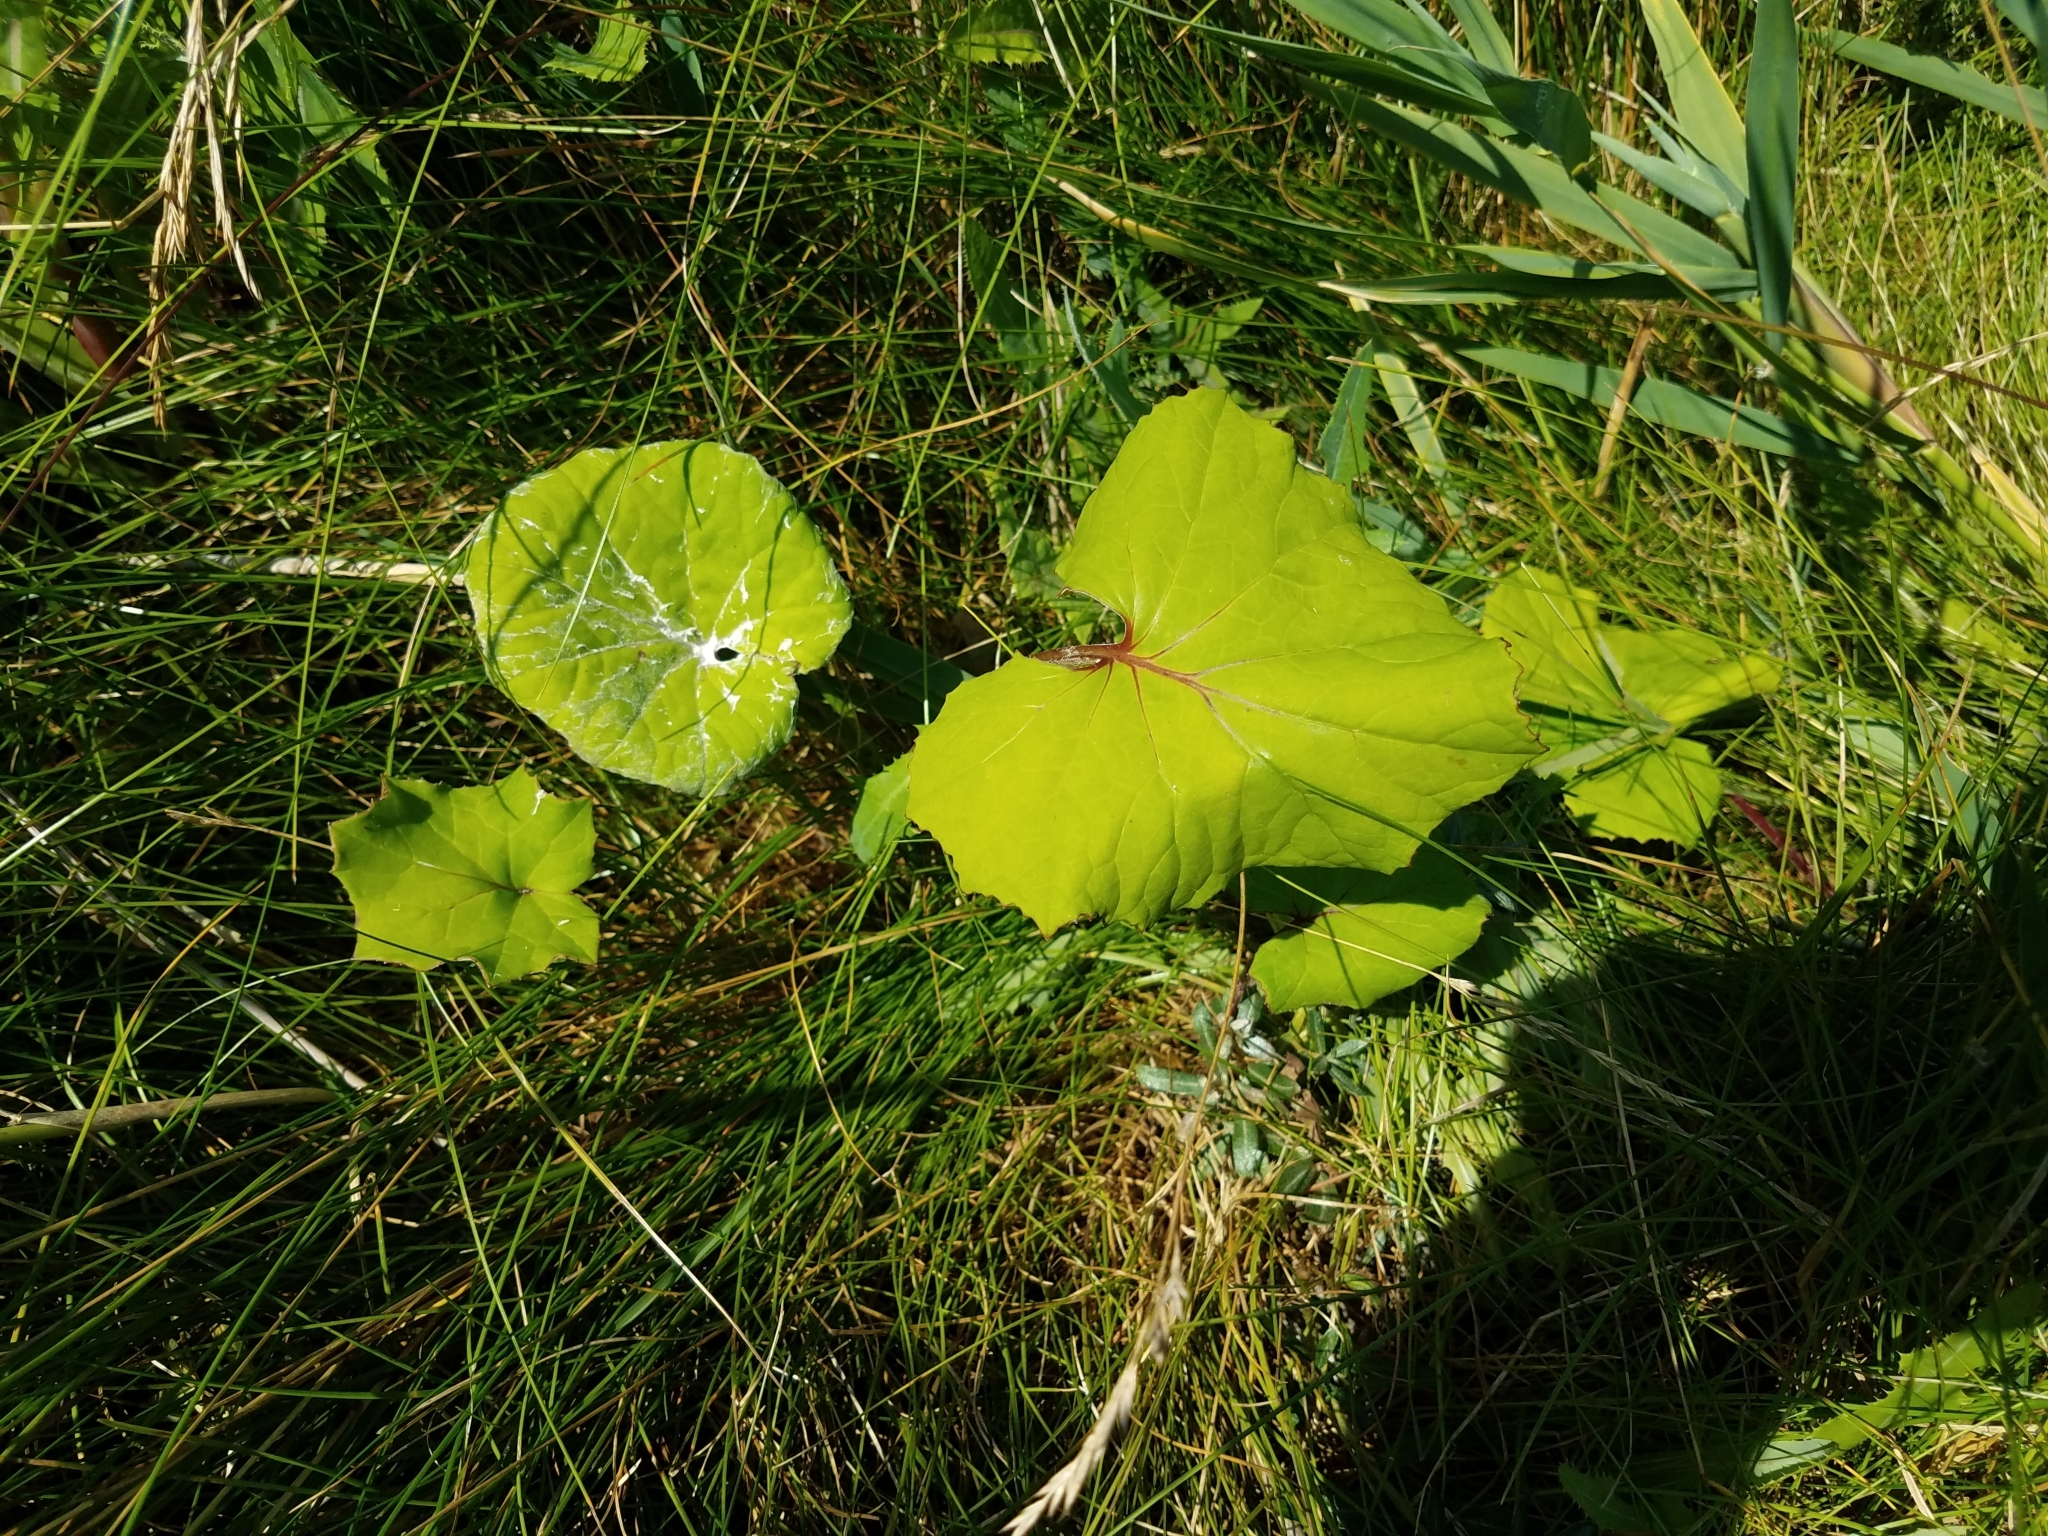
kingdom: Plantae
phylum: Tracheophyta
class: Magnoliopsida
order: Asterales
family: Asteraceae
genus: Tussilago
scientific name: Tussilago farfara
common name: Coltsfoot
